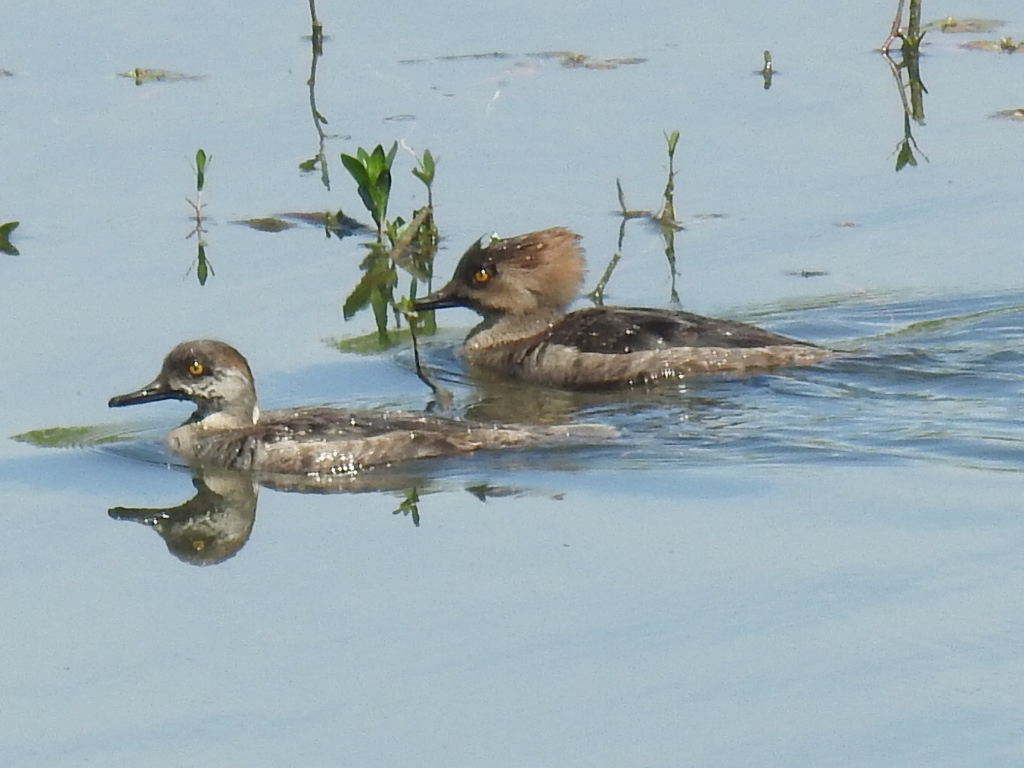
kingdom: Animalia
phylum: Chordata
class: Aves
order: Anseriformes
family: Anatidae
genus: Lophodytes
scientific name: Lophodytes cucullatus
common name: Hooded merganser
